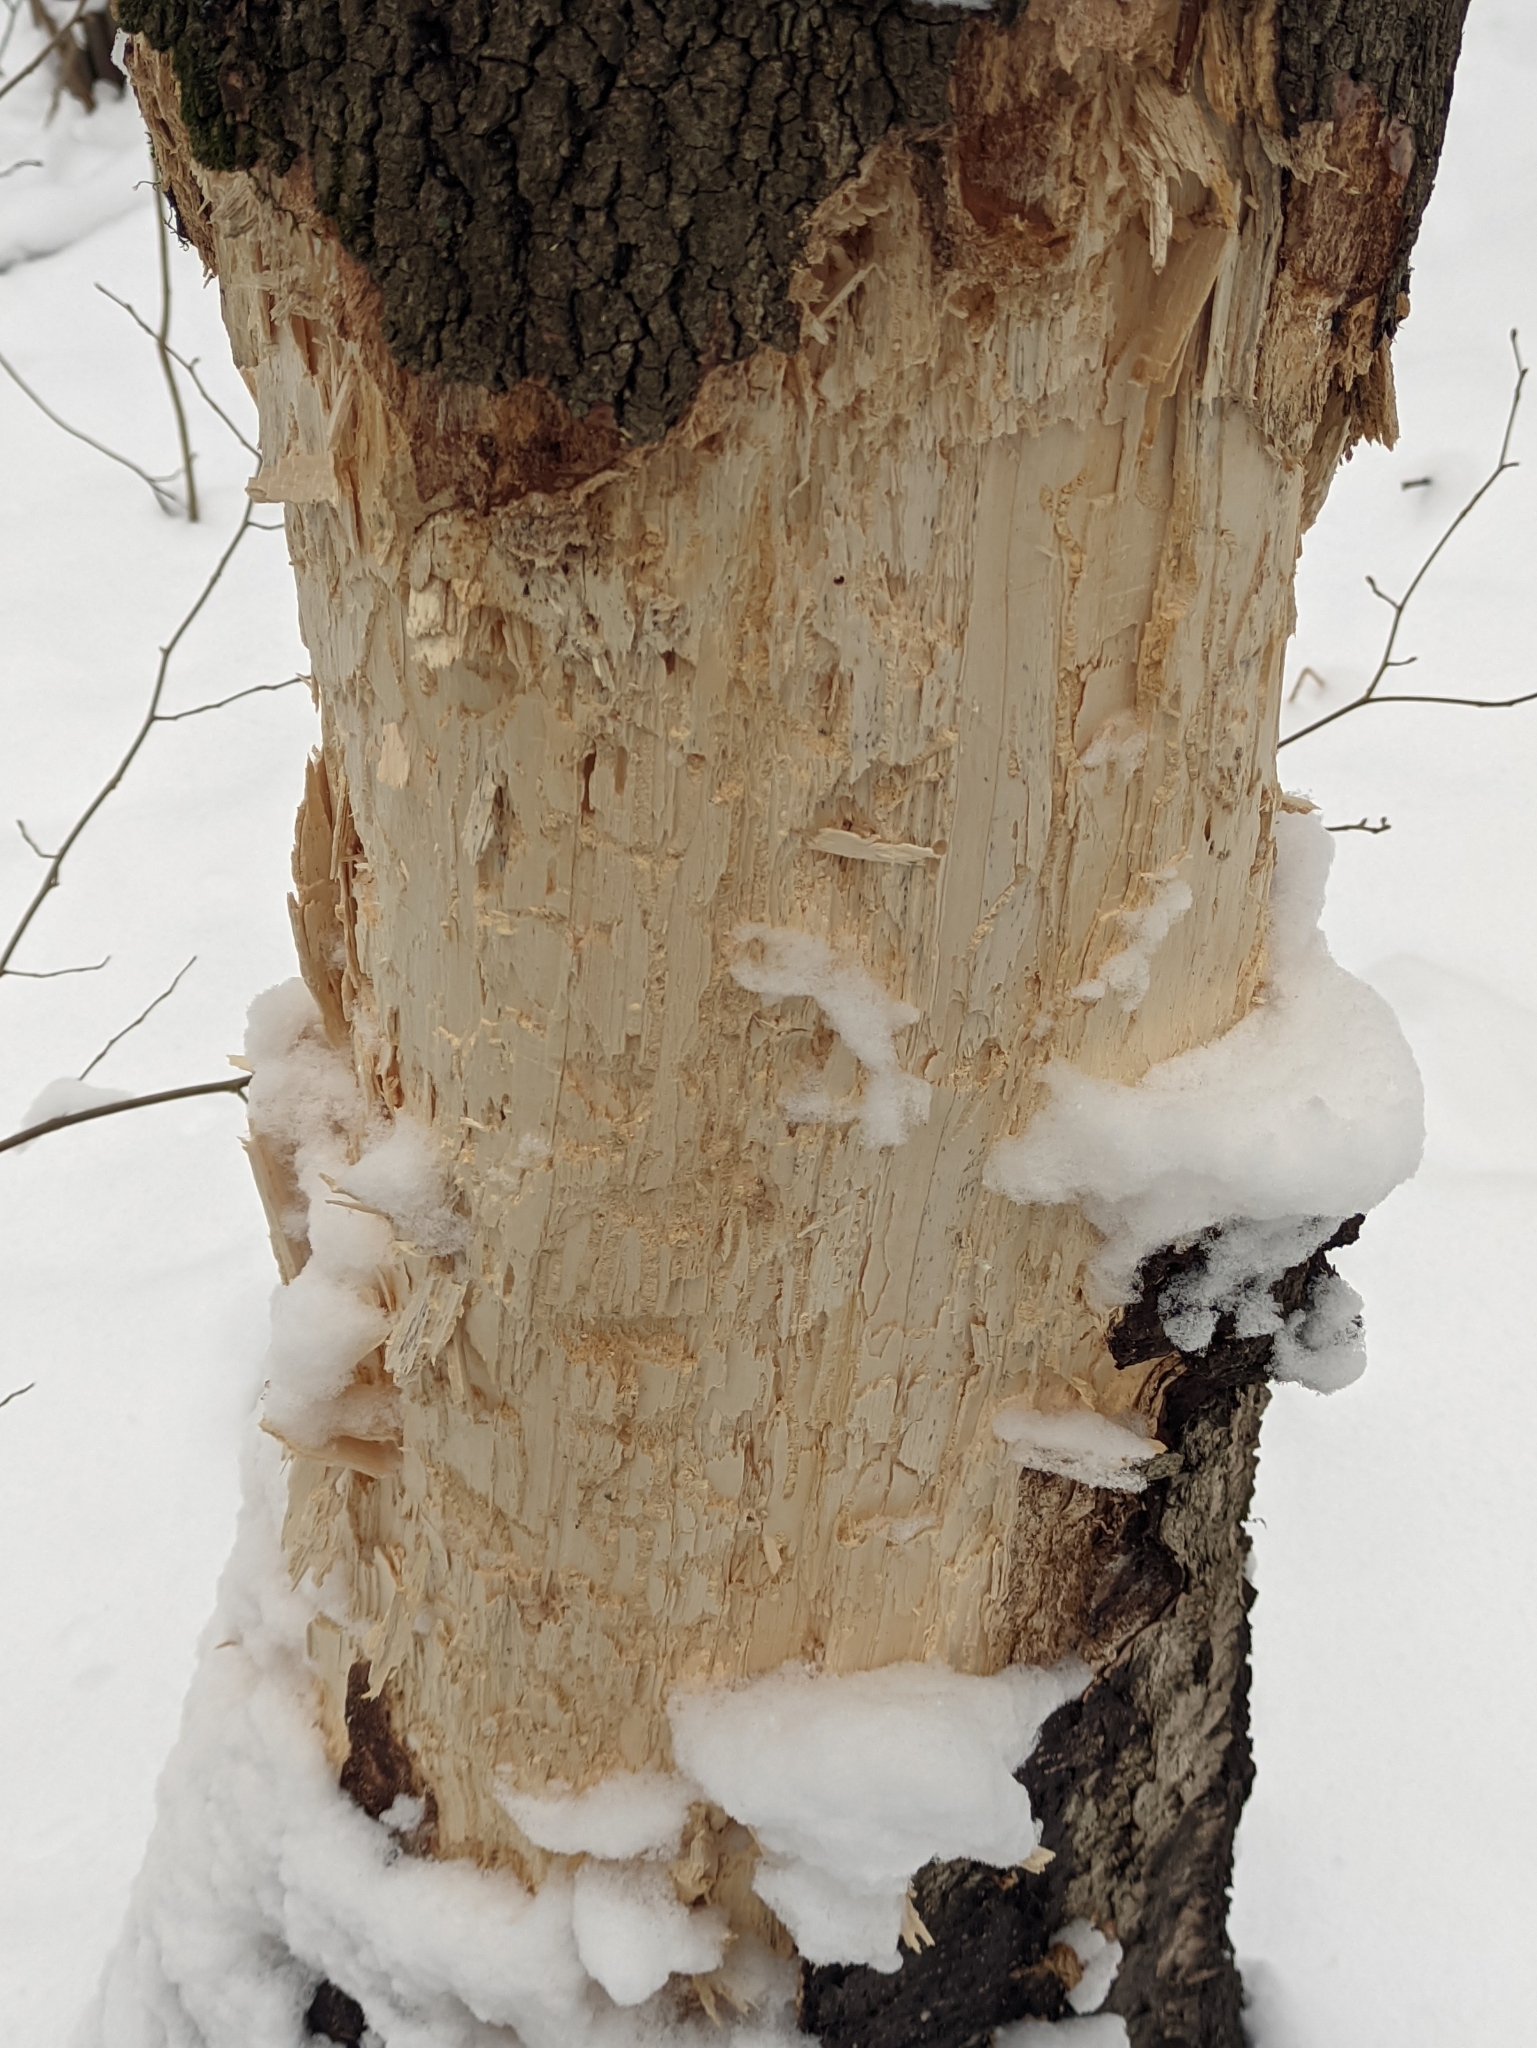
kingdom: Animalia
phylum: Chordata
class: Aves
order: Piciformes
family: Picidae
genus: Dryocopus
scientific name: Dryocopus martius
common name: Black woodpecker
